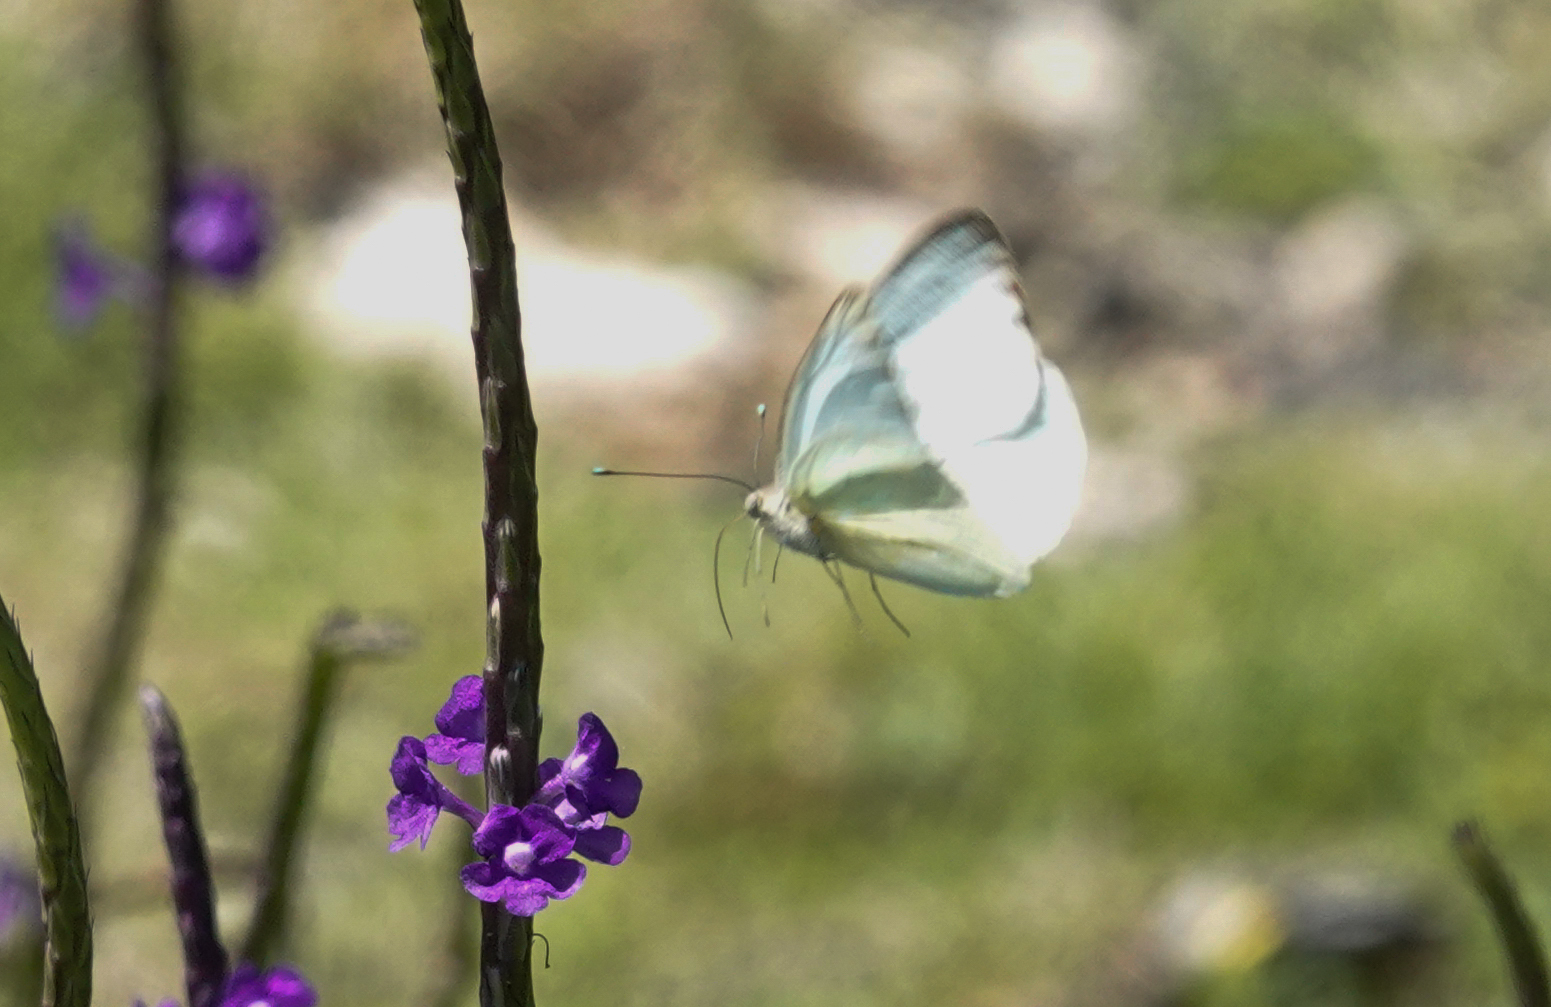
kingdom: Animalia
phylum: Arthropoda
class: Insecta
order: Lepidoptera
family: Pieridae
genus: Ascia
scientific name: Ascia monuste
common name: Great southern white
